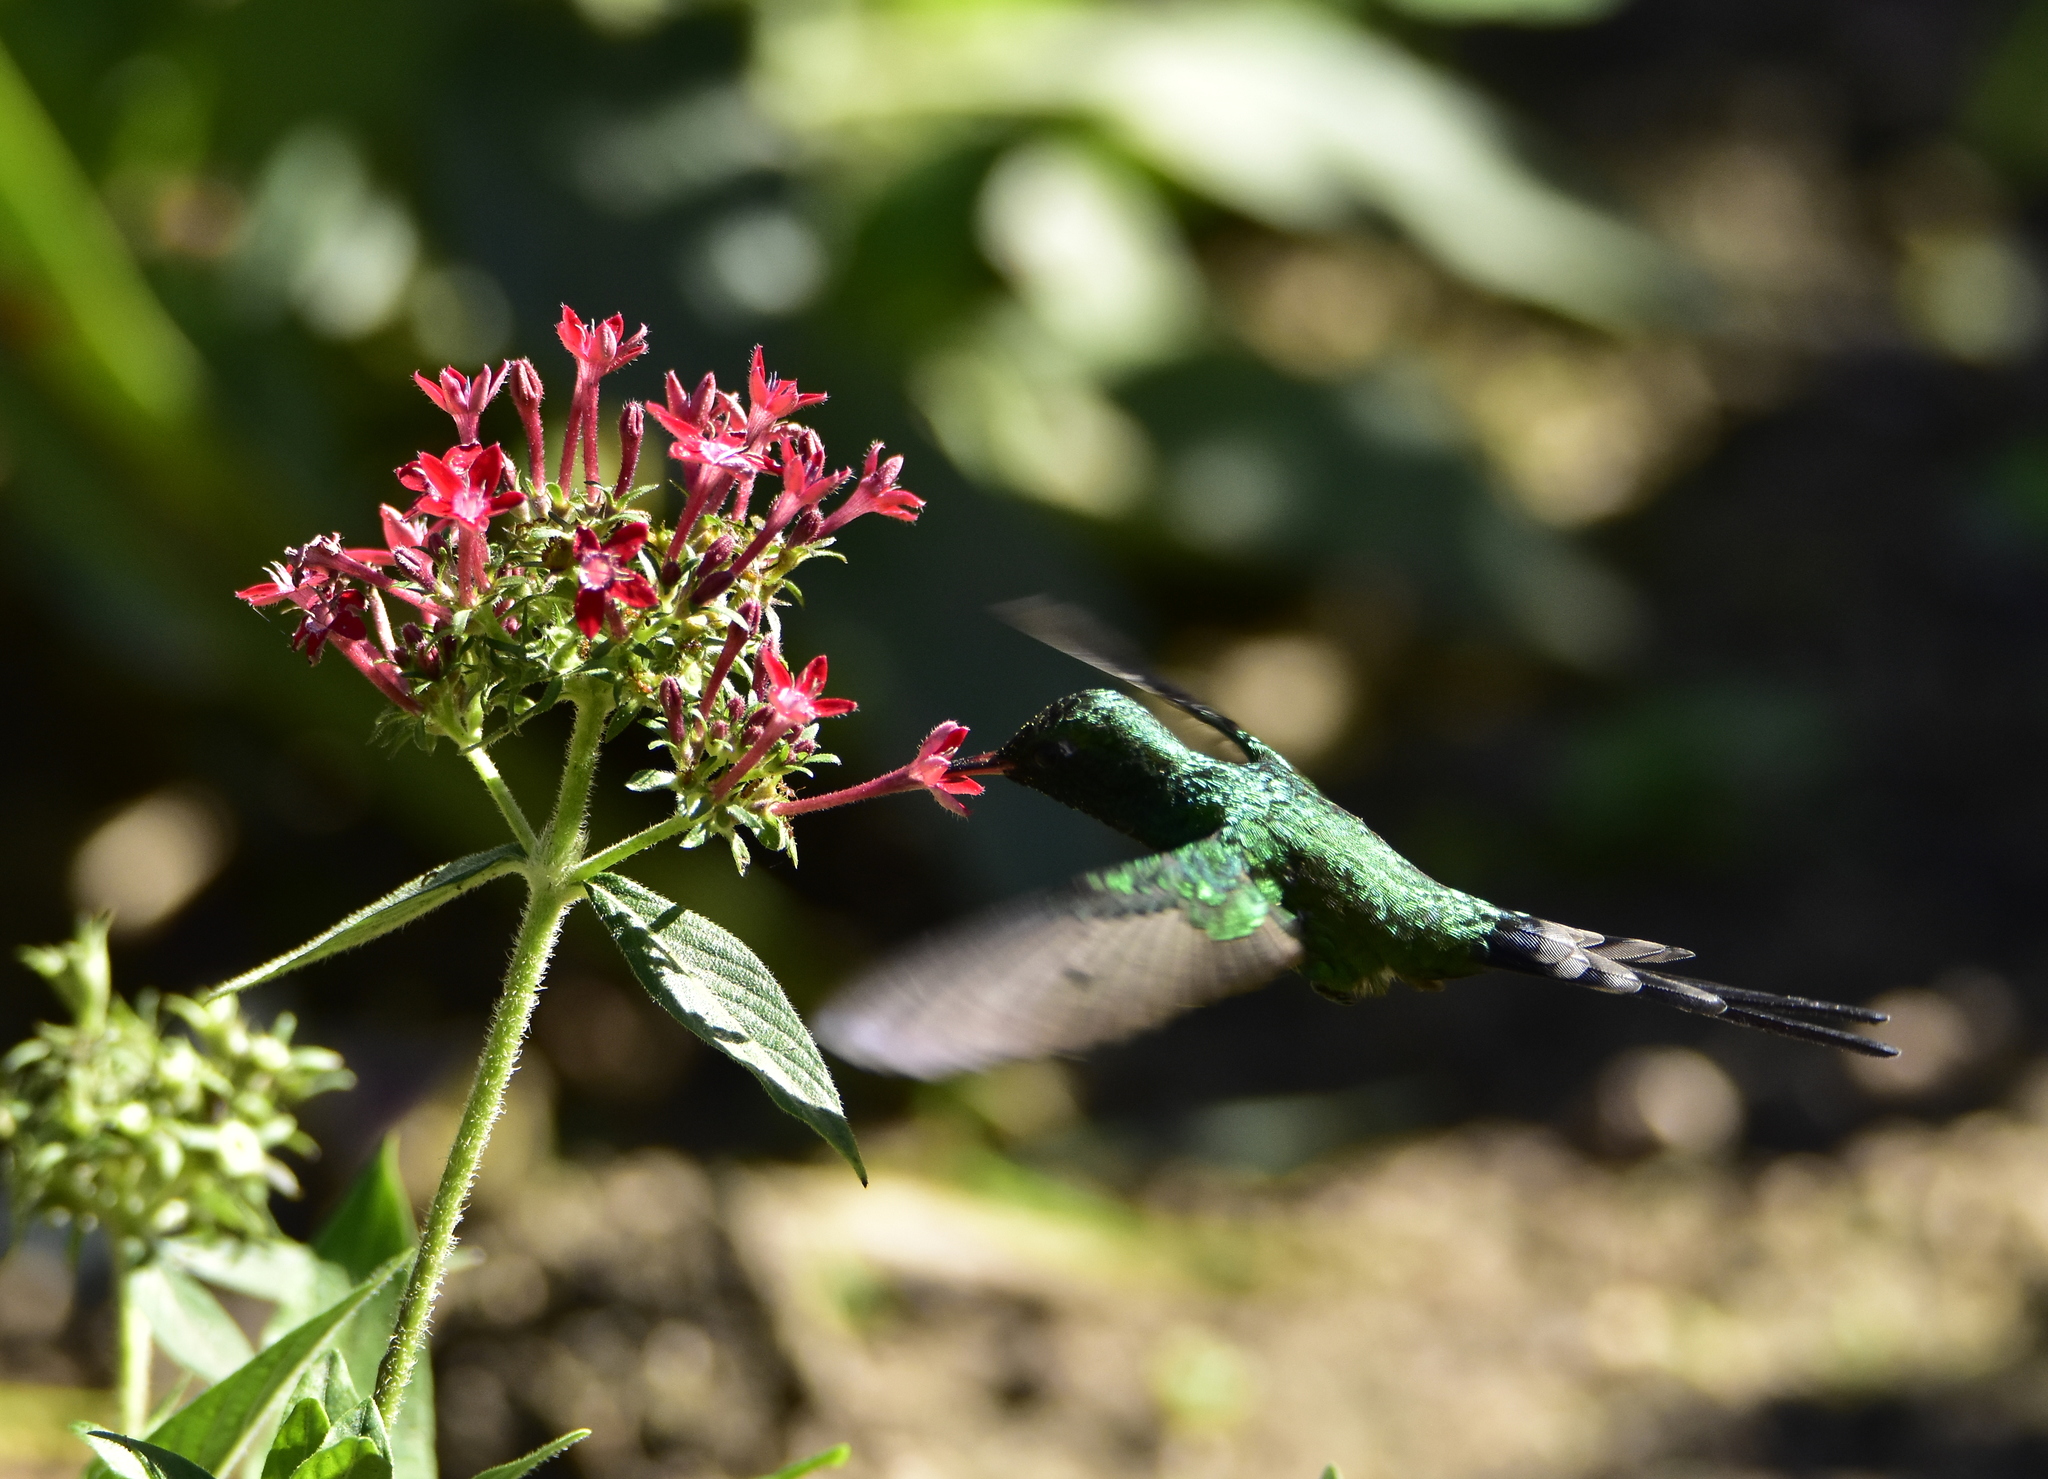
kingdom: Animalia
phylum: Chordata
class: Aves
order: Apodiformes
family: Trochilidae
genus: Cynanthus
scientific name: Cynanthus auriceps
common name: Golden-crowned emerald
